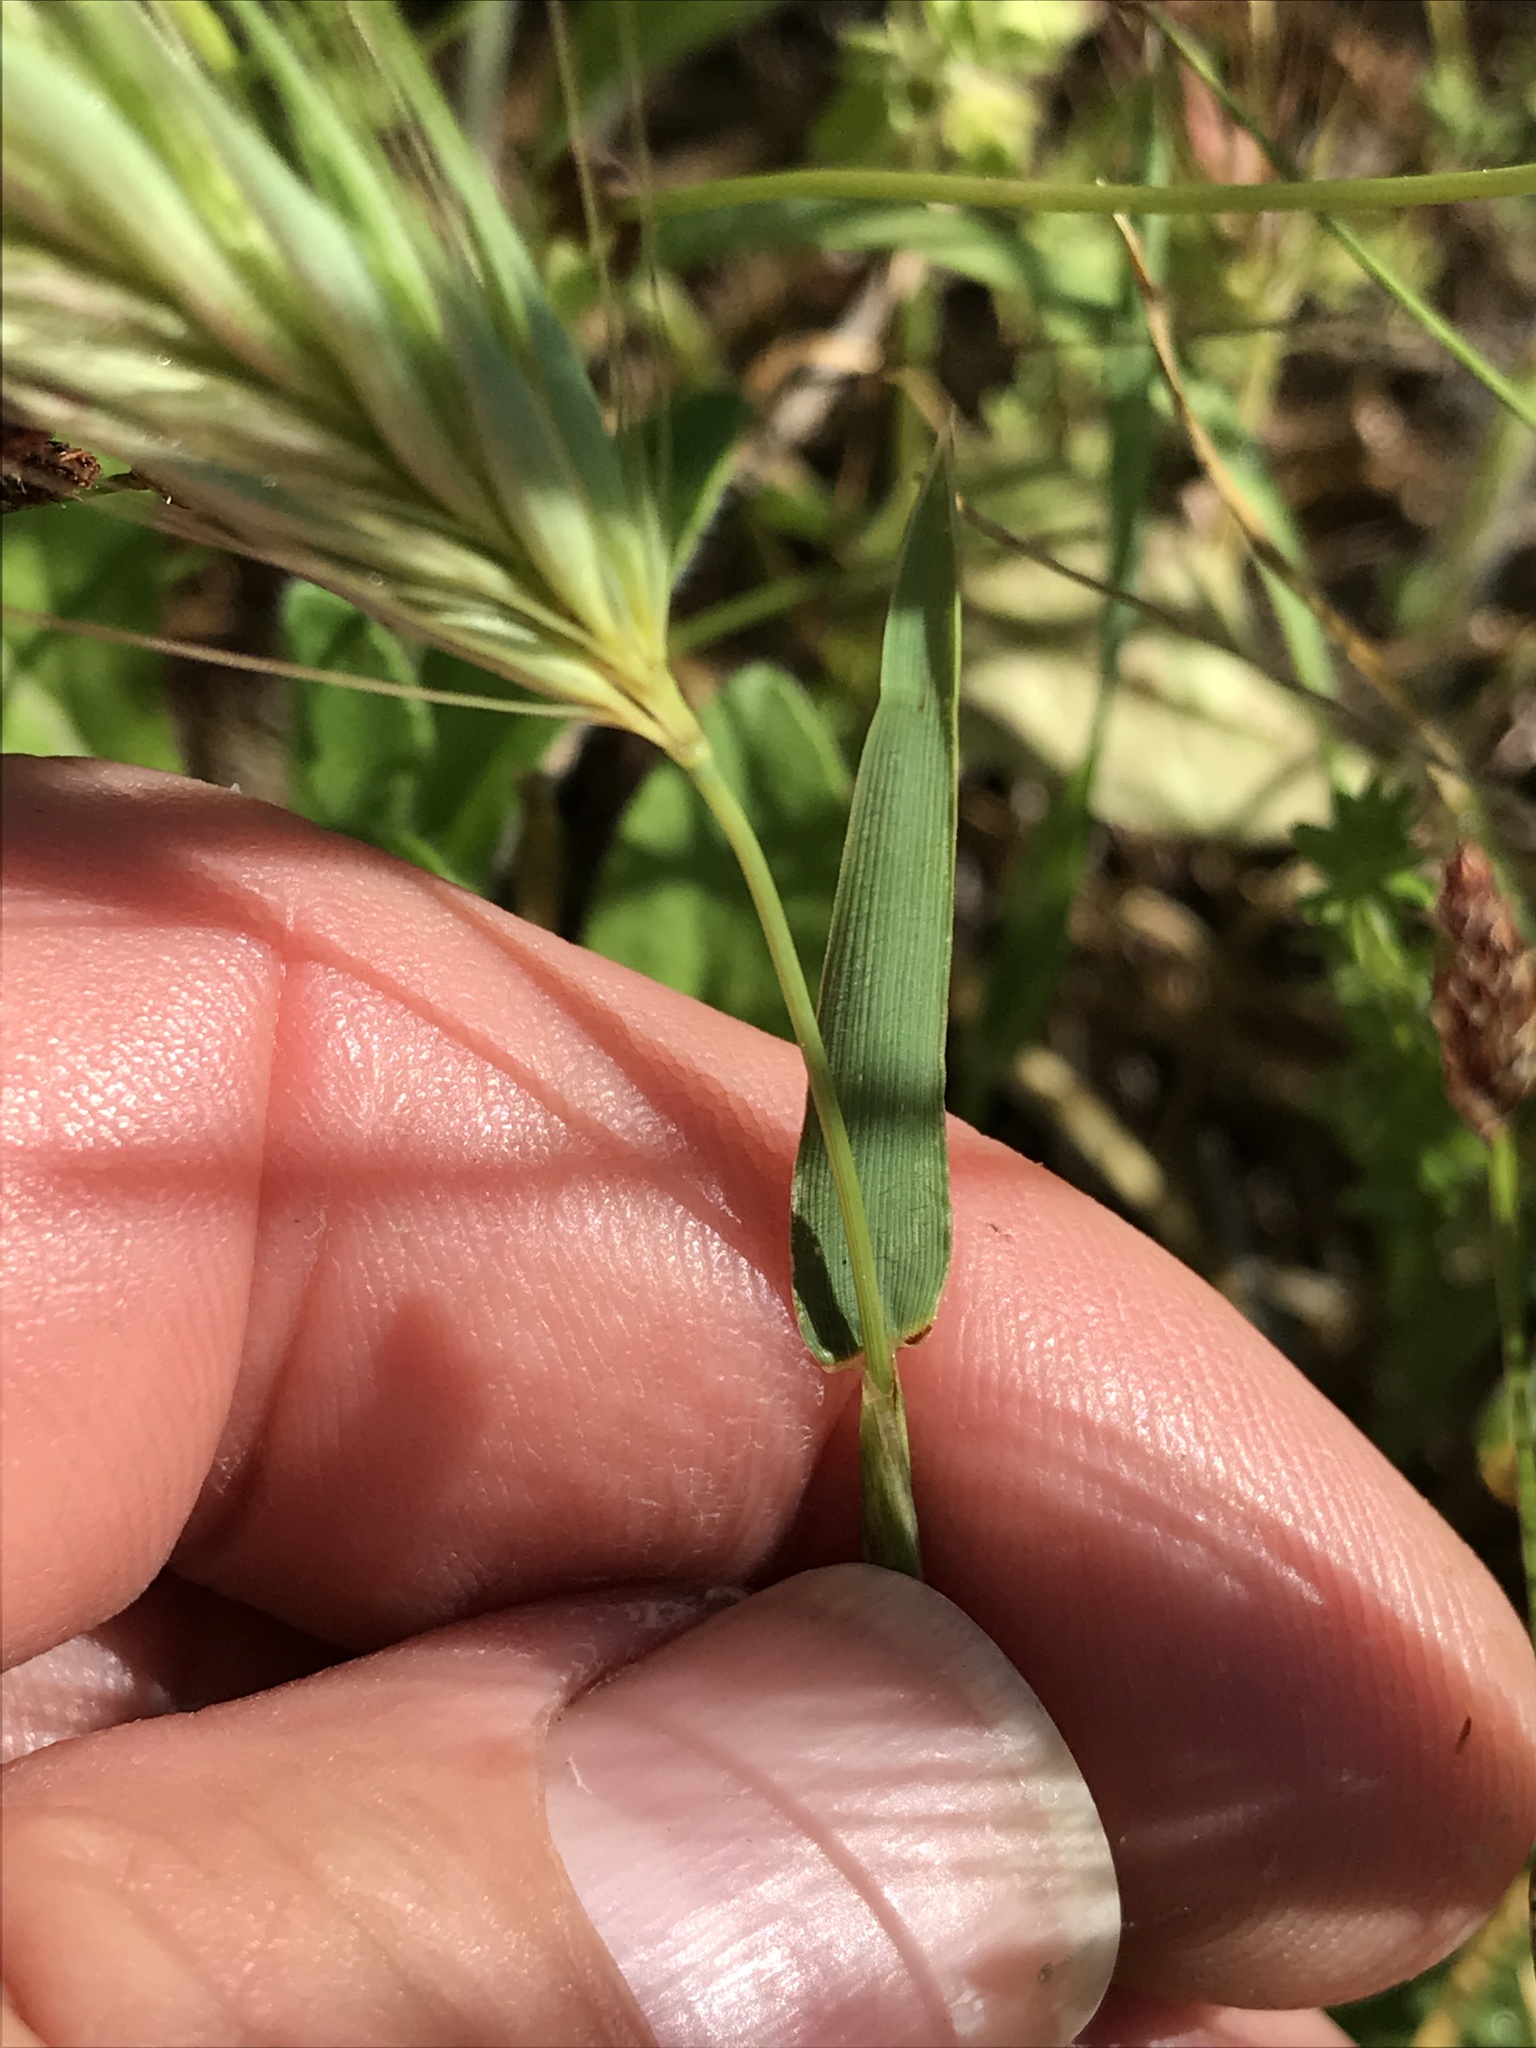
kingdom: Plantae
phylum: Tracheophyta
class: Liliopsida
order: Poales
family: Poaceae
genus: Hordeum
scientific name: Hordeum murinum
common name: Wall barley
